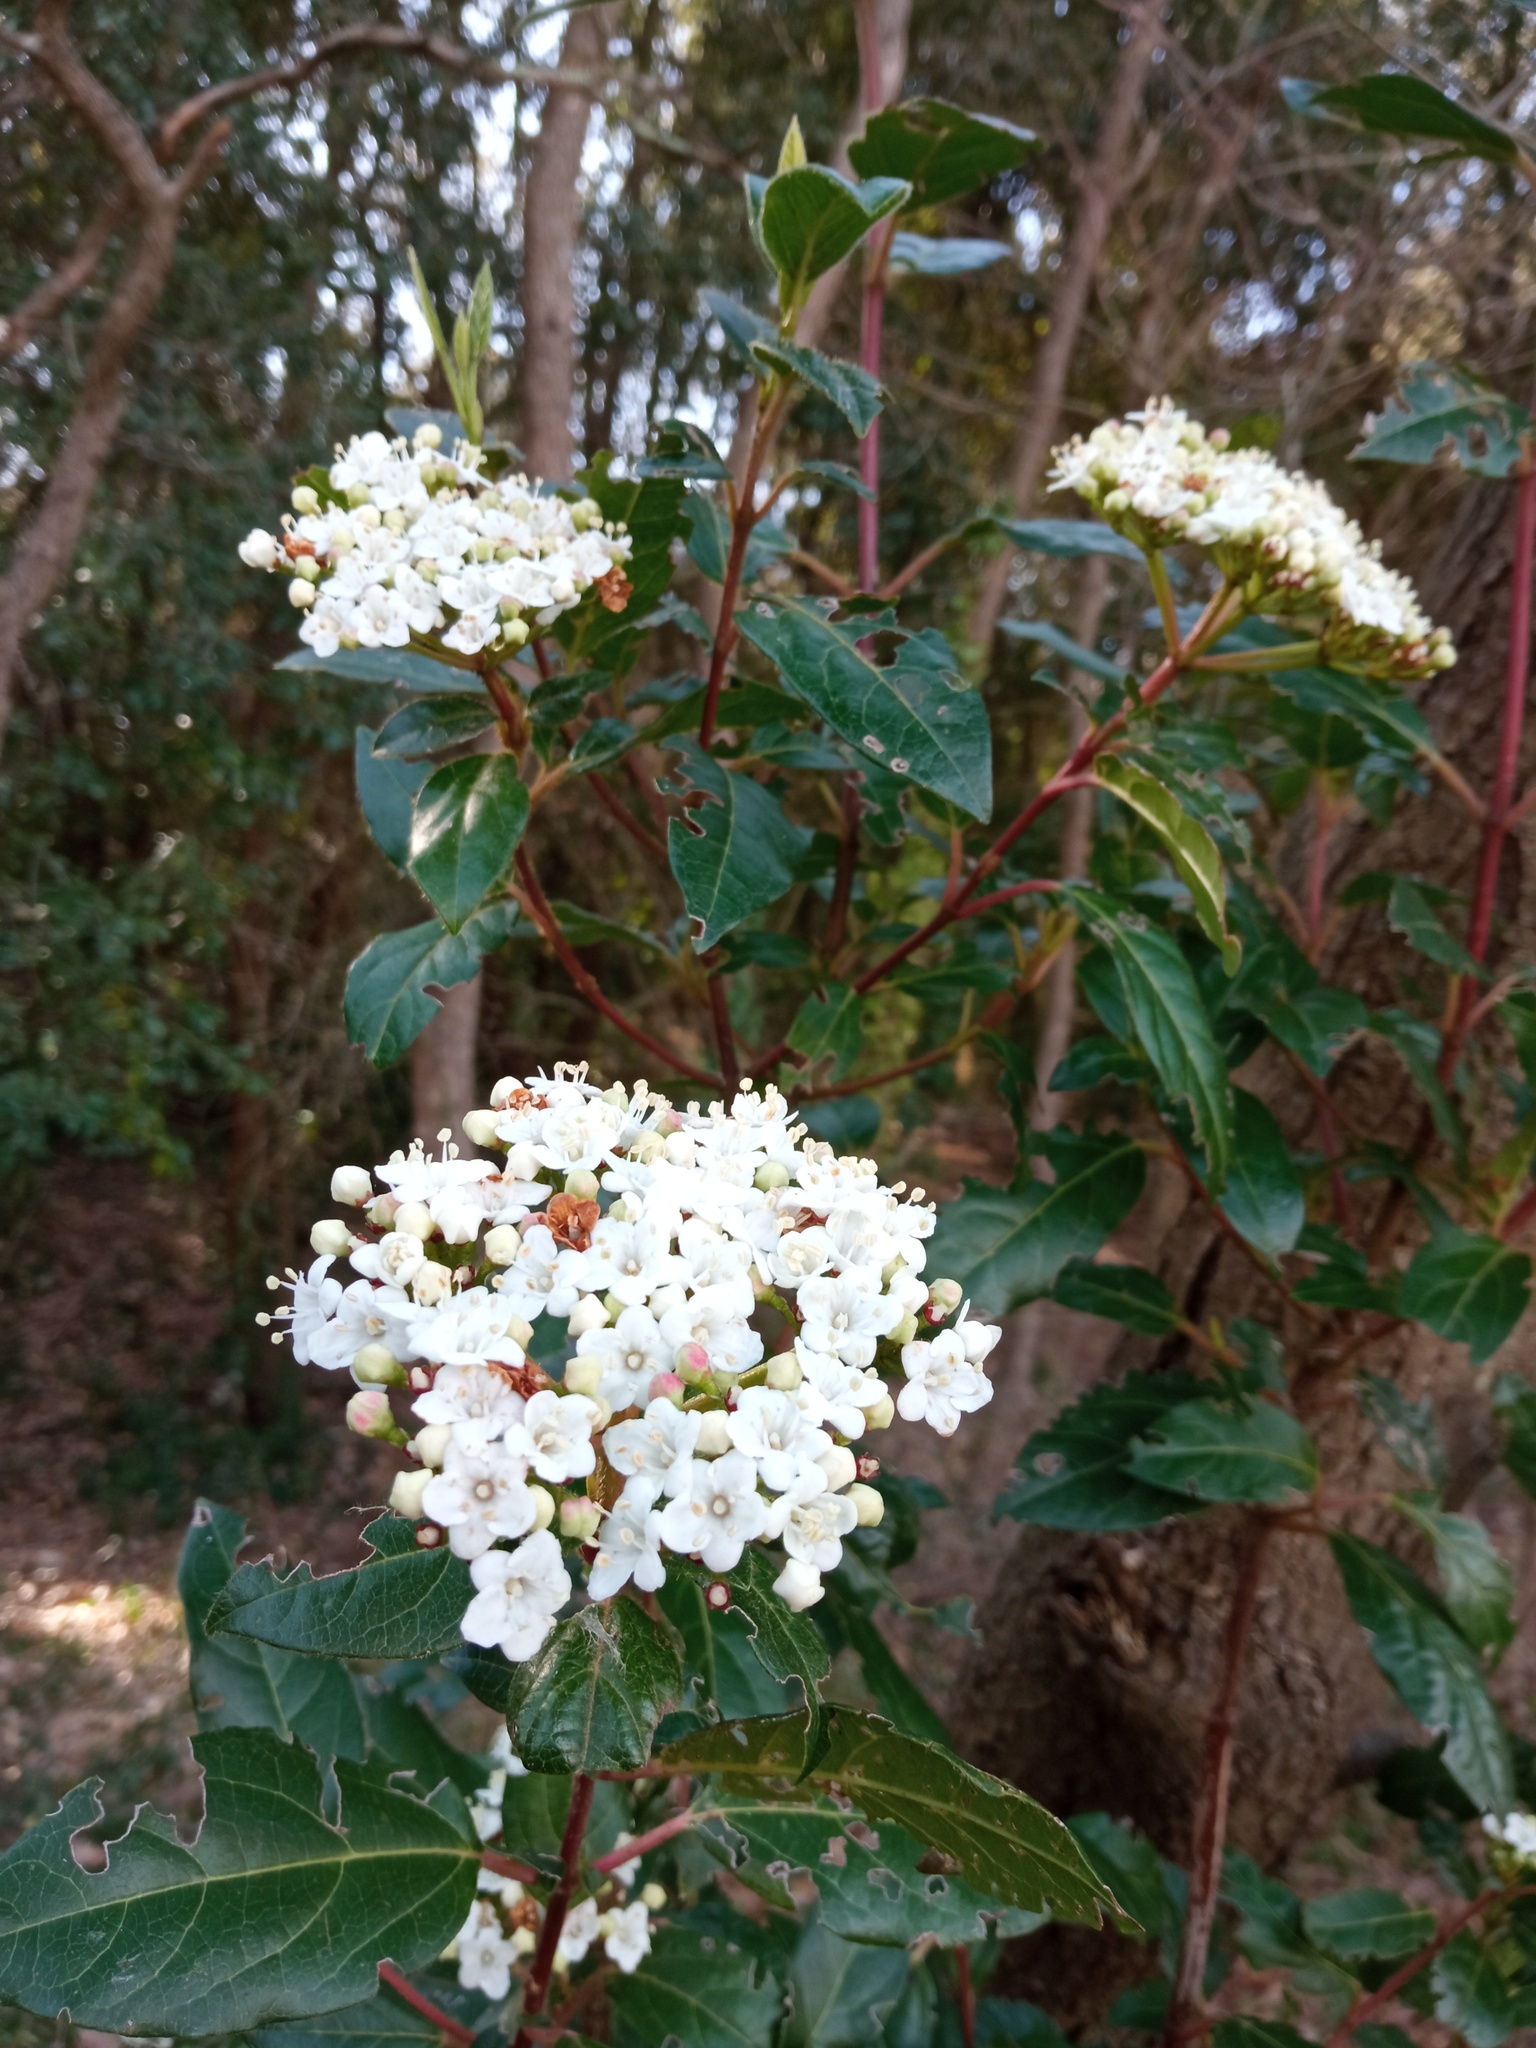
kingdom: Plantae
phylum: Tracheophyta
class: Magnoliopsida
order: Dipsacales
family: Viburnaceae
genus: Viburnum
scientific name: Viburnum tinus
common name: Laurustinus
